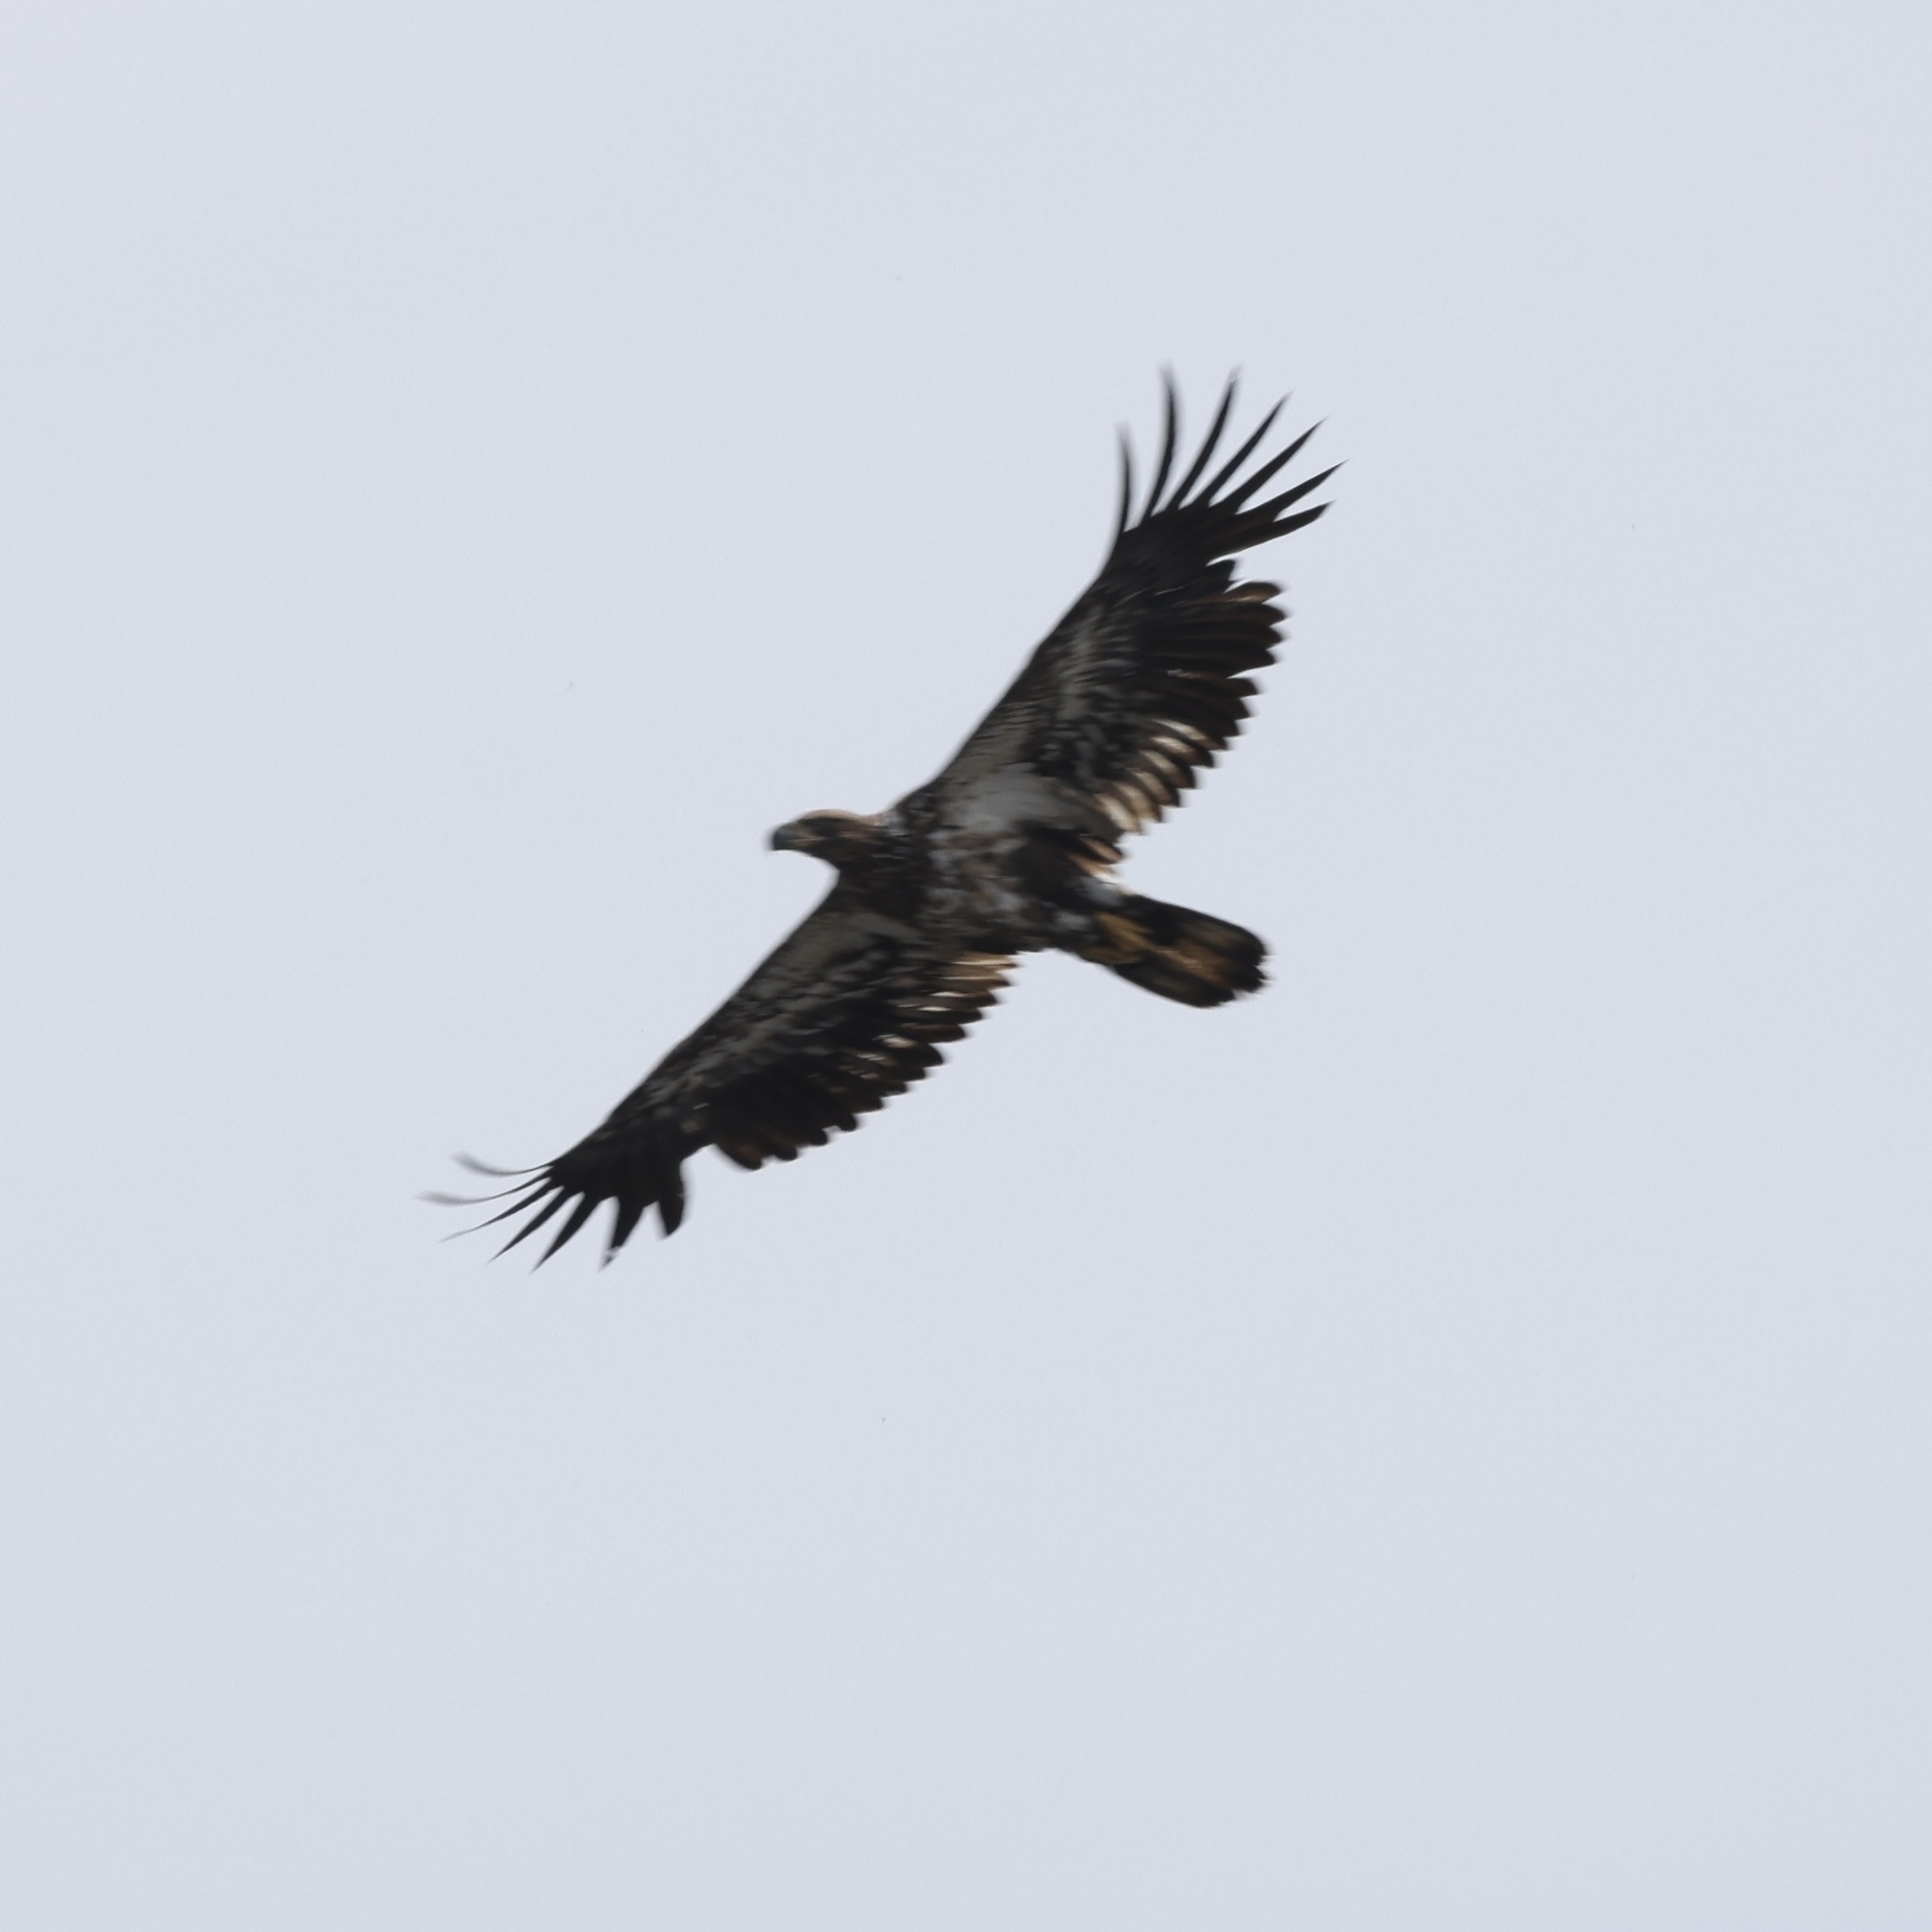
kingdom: Animalia
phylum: Chordata
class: Aves
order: Accipitriformes
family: Accipitridae
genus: Haliaeetus
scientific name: Haliaeetus leucocephalus
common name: Bald eagle
